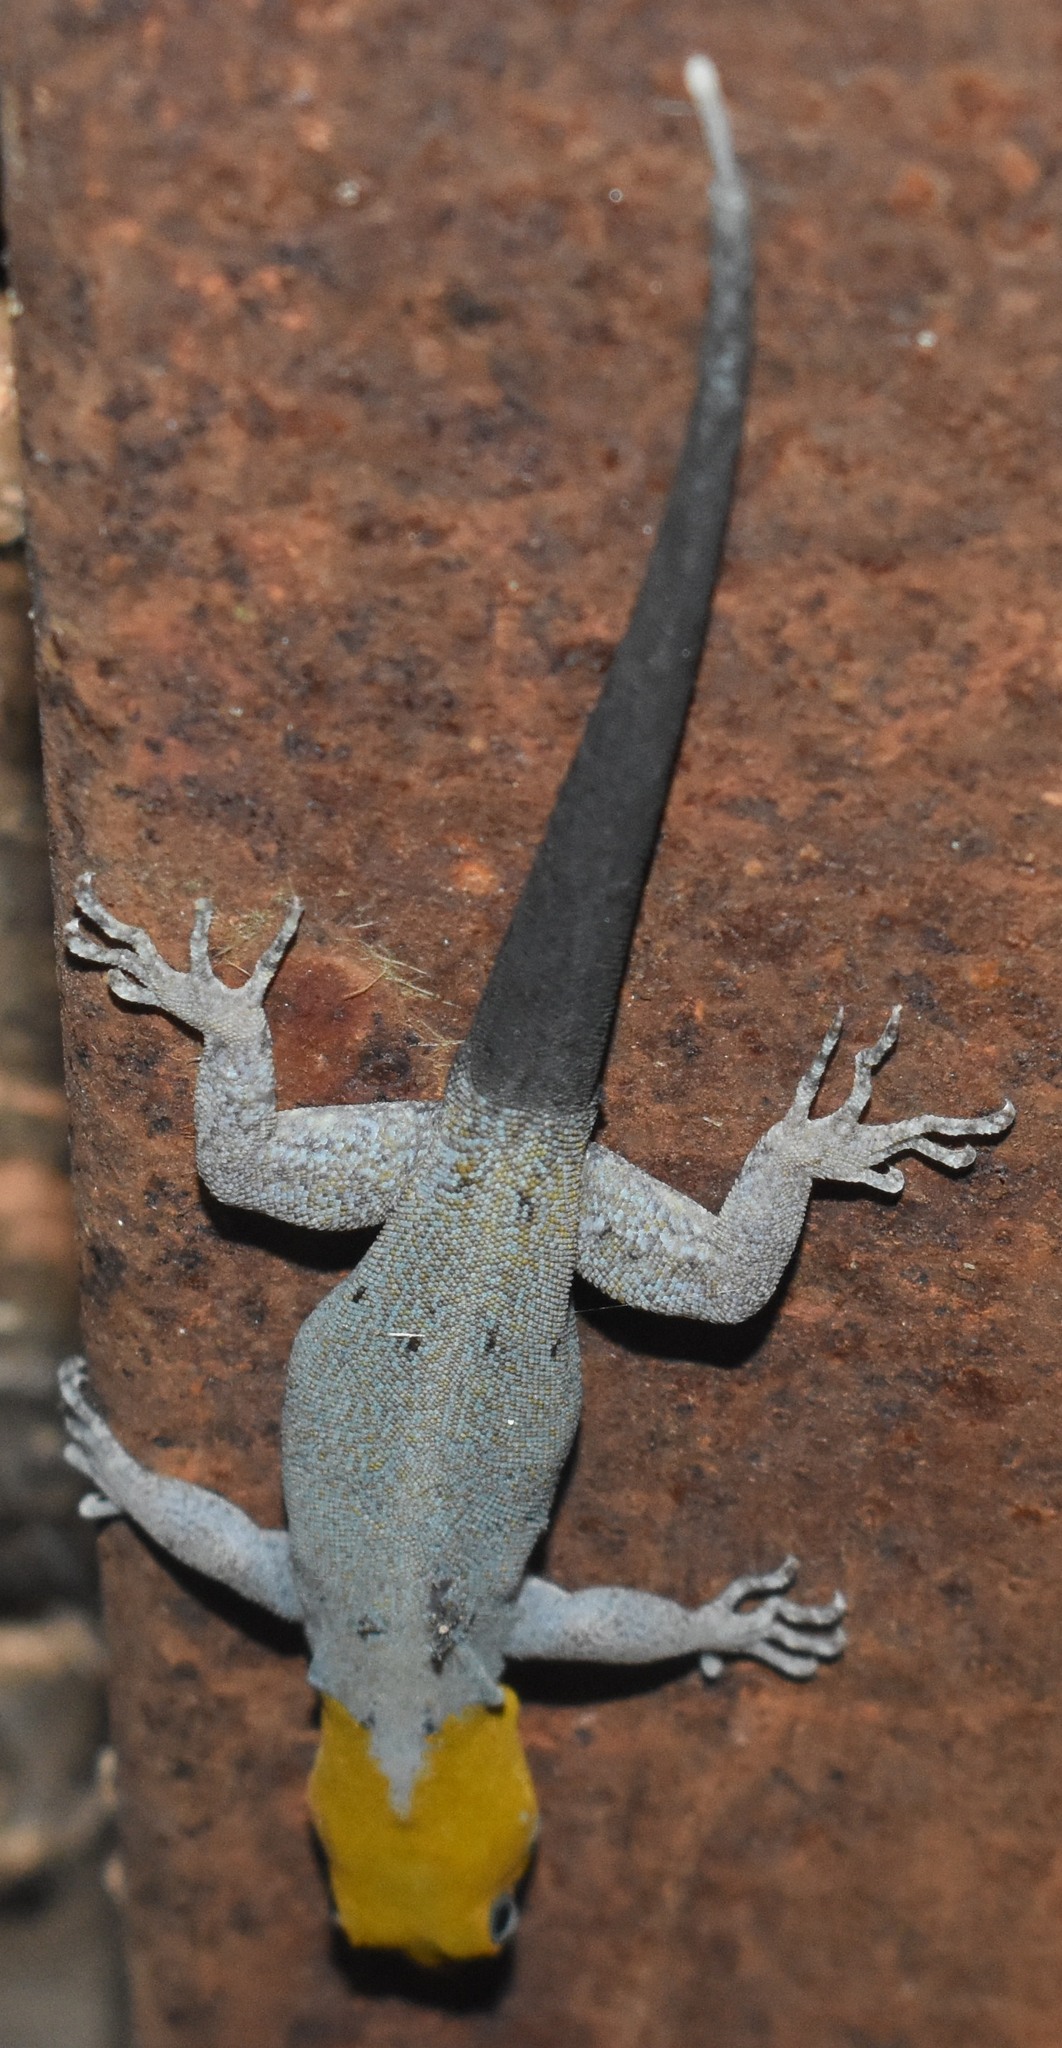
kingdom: Animalia
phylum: Chordata
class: Squamata
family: Sphaerodactylidae
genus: Gonatodes
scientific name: Gonatodes albogularis
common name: Yellow-headed gecko
